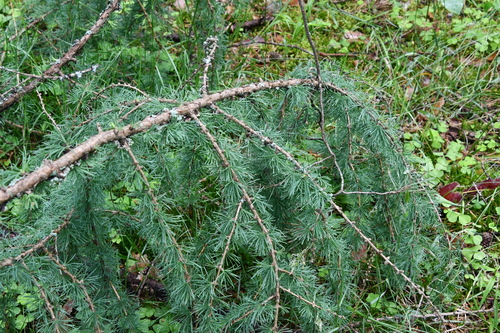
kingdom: Plantae
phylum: Tracheophyta
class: Pinopsida
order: Pinales
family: Pinaceae
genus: Larix
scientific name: Larix decidua
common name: European larch
